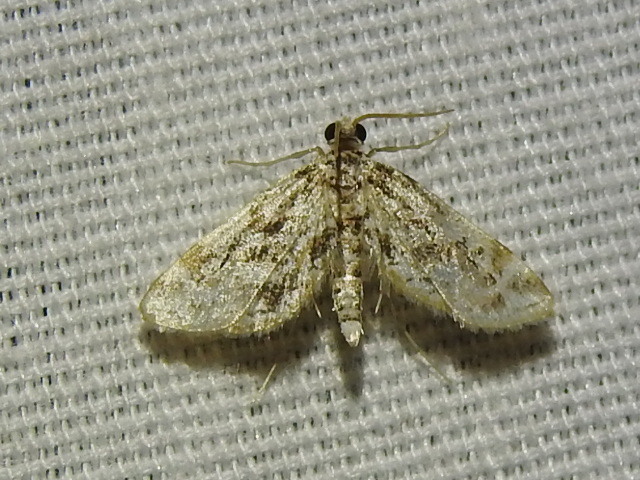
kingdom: Animalia
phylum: Arthropoda
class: Insecta
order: Lepidoptera
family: Crambidae
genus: Parapoynx
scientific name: Parapoynx diminutalis
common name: Hydrilla leafcutter
